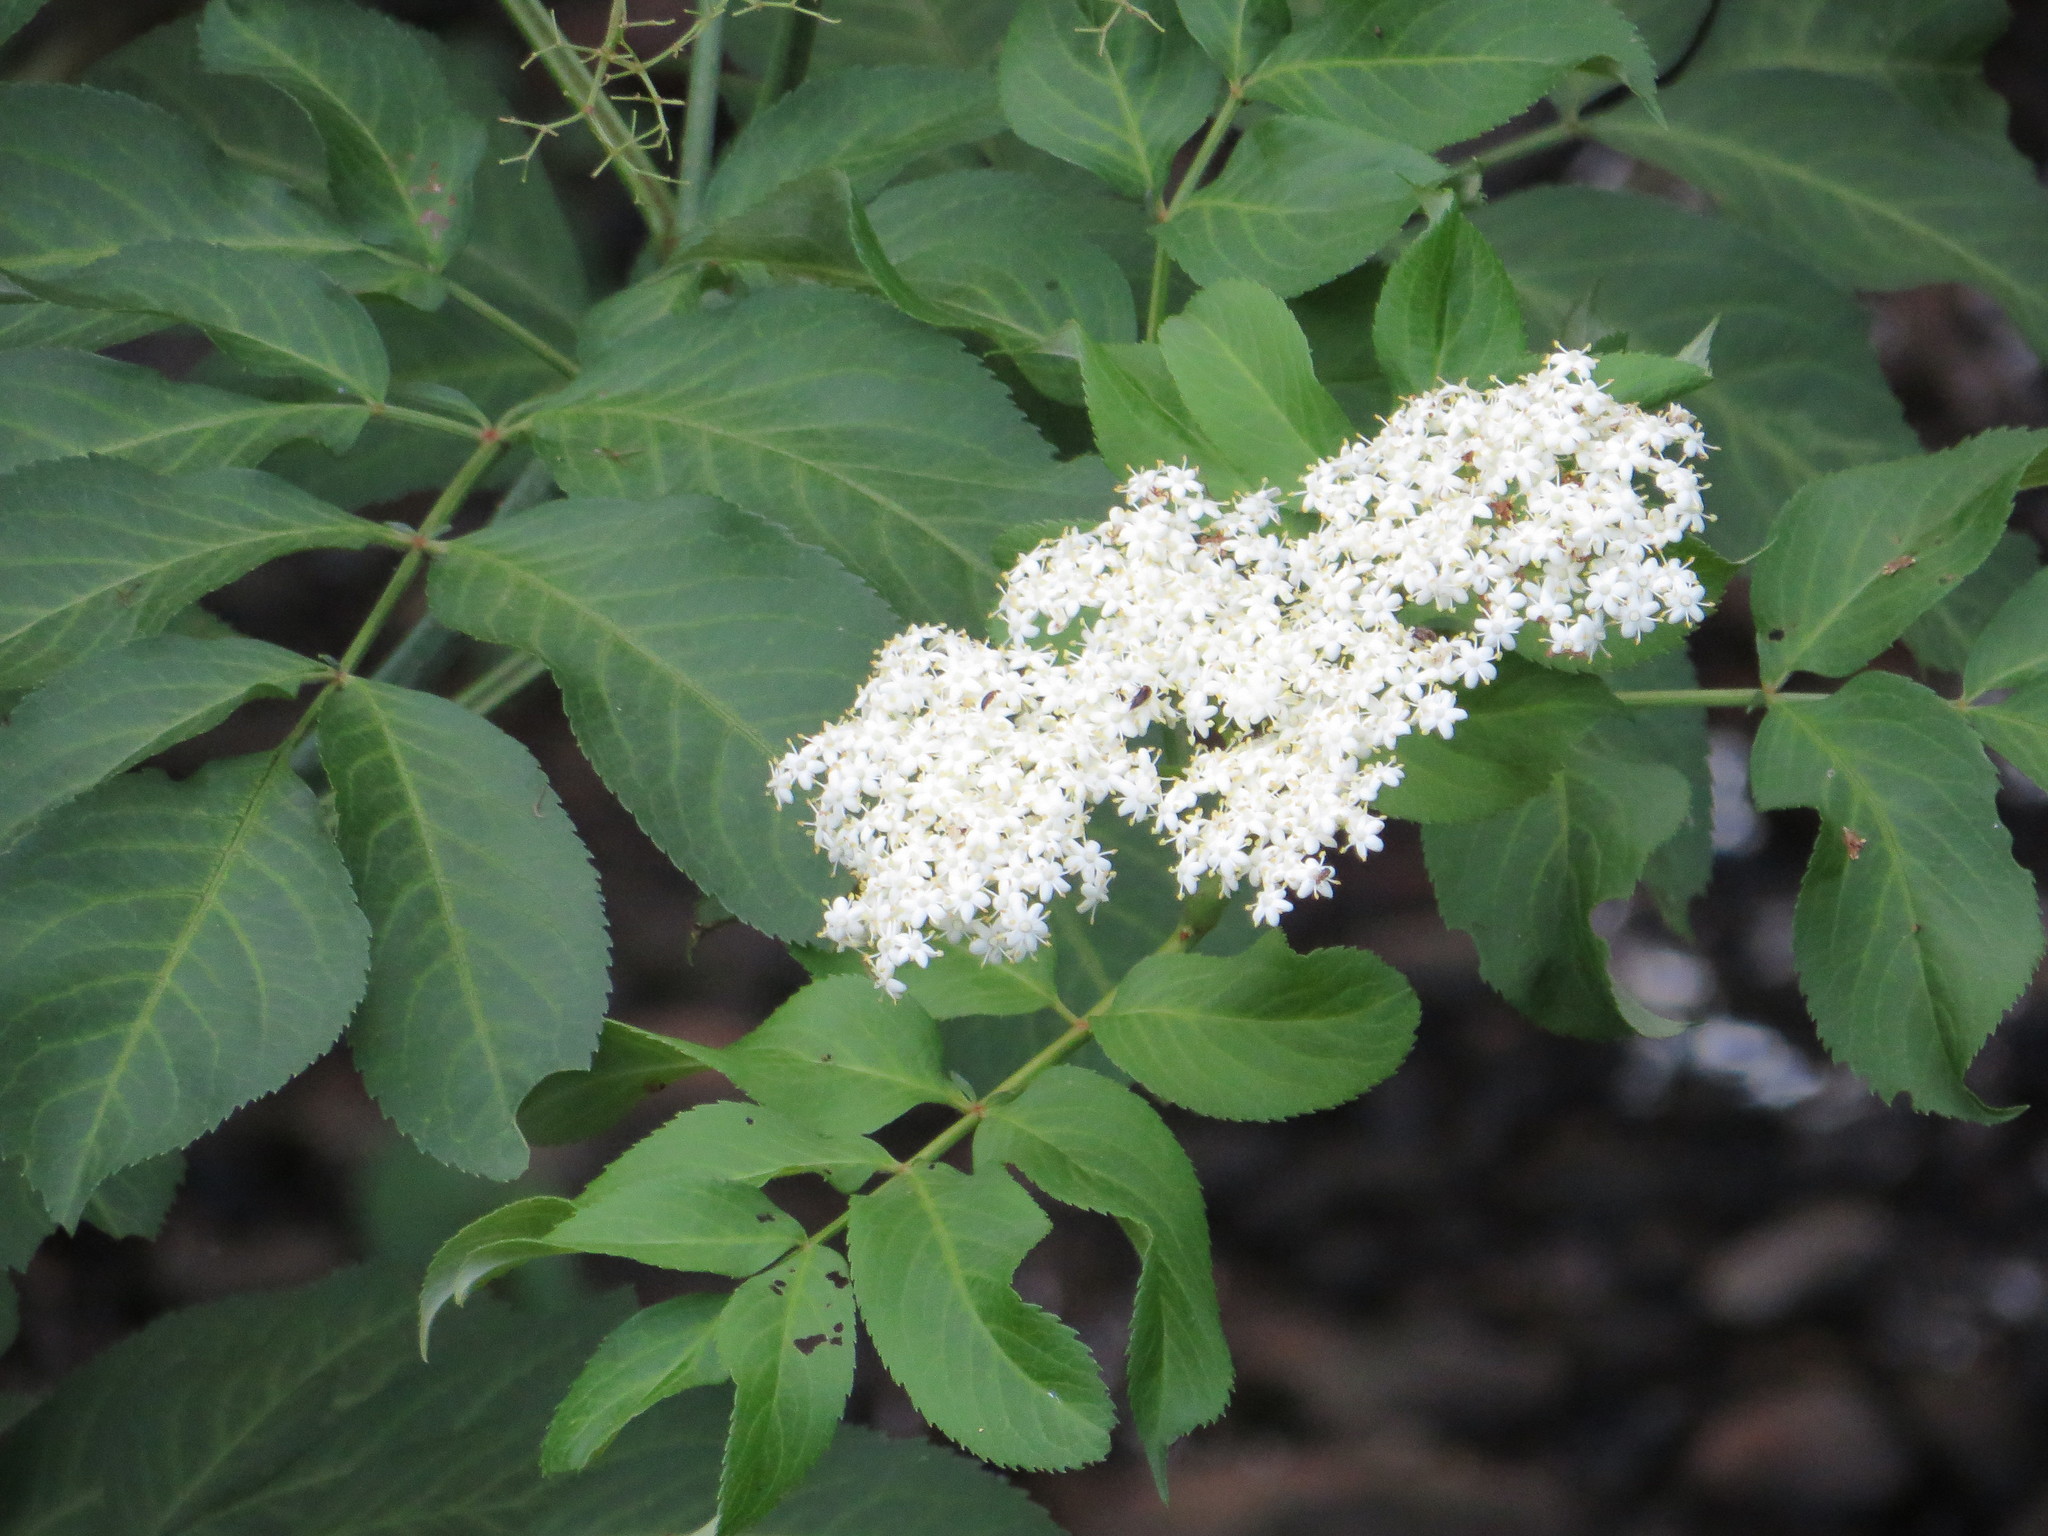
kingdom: Plantae
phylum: Tracheophyta
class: Magnoliopsida
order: Dipsacales
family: Viburnaceae
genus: Sambucus
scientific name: Sambucus canadensis
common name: American elder
